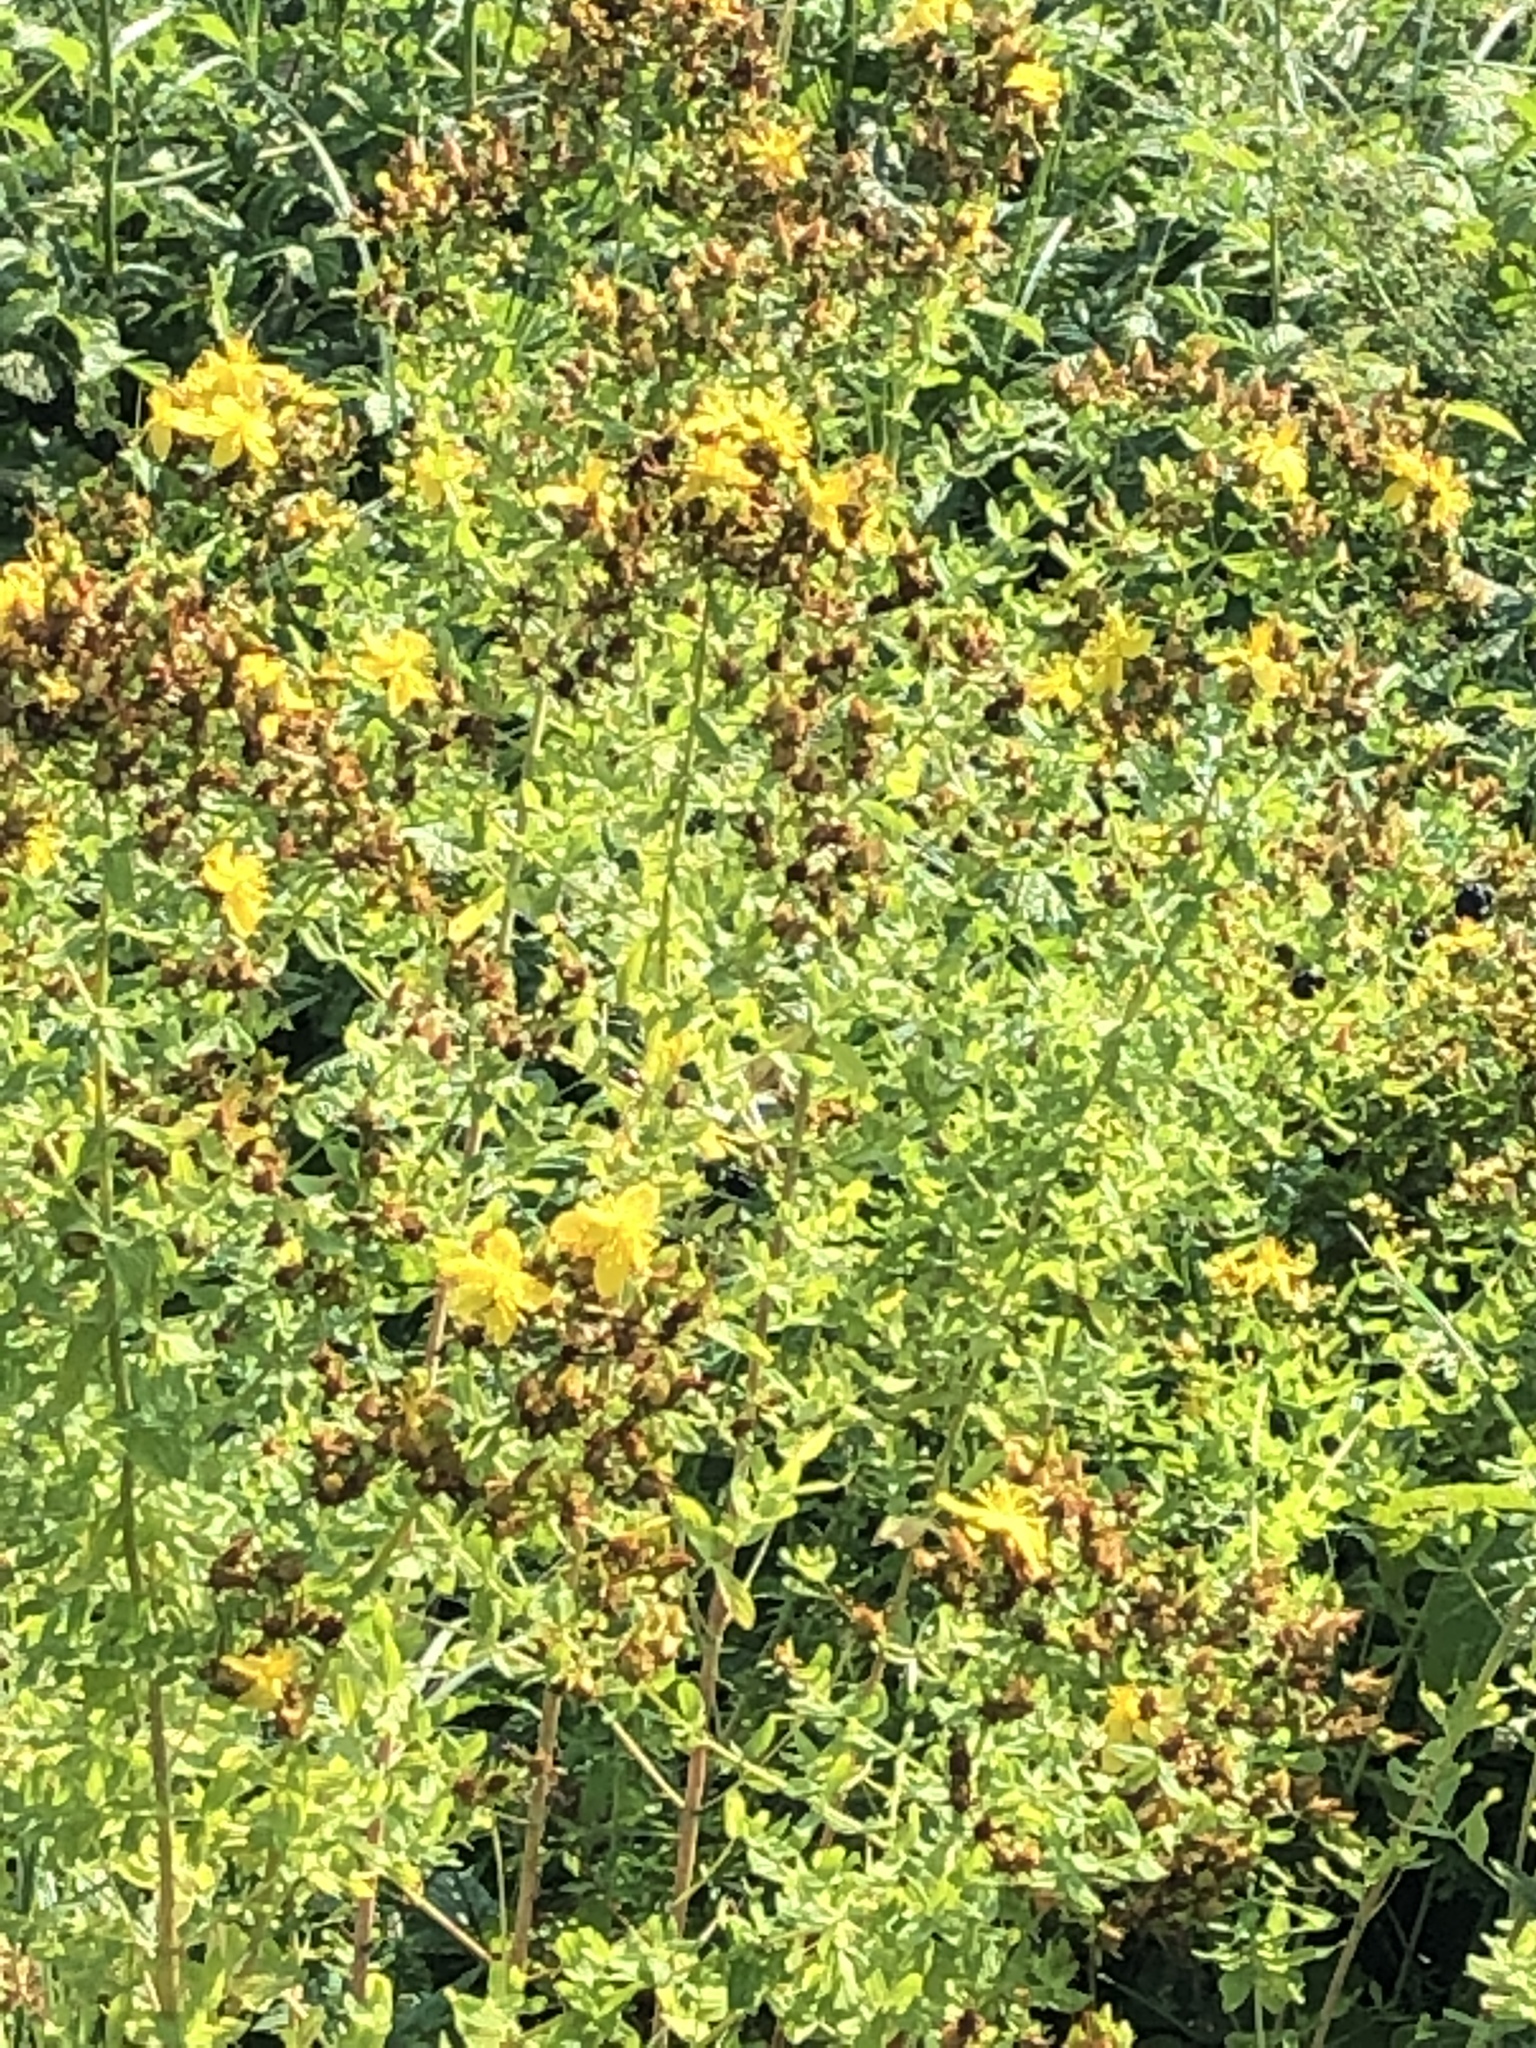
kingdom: Plantae
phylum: Tracheophyta
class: Magnoliopsida
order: Malpighiales
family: Hypericaceae
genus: Hypericum
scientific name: Hypericum perforatum
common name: Common st. johnswort
